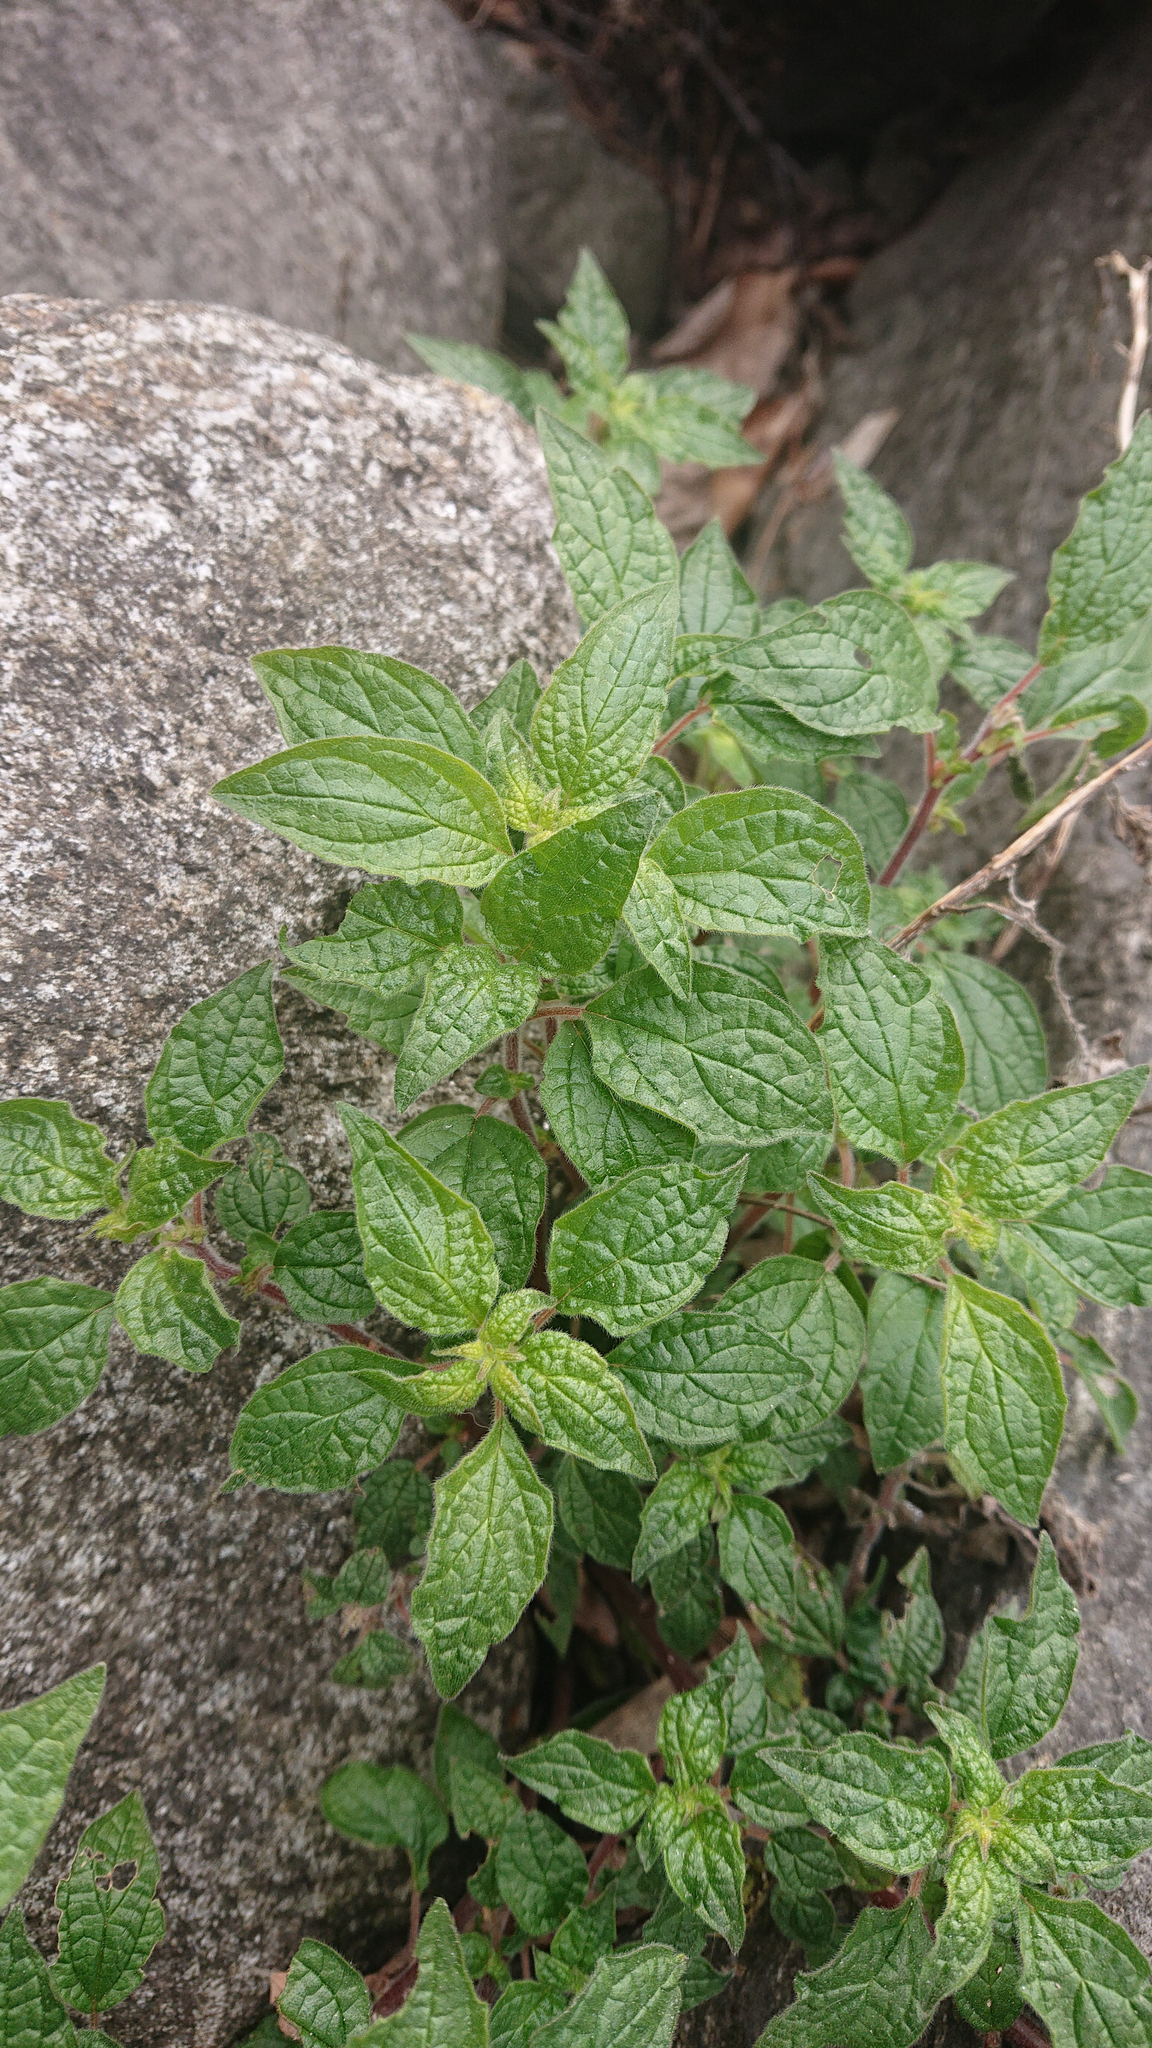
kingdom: Plantae
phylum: Tracheophyta
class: Magnoliopsida
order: Rosales
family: Urticaceae
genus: Parietaria
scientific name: Parietaria judaica
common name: Pellitory-of-the-wall
